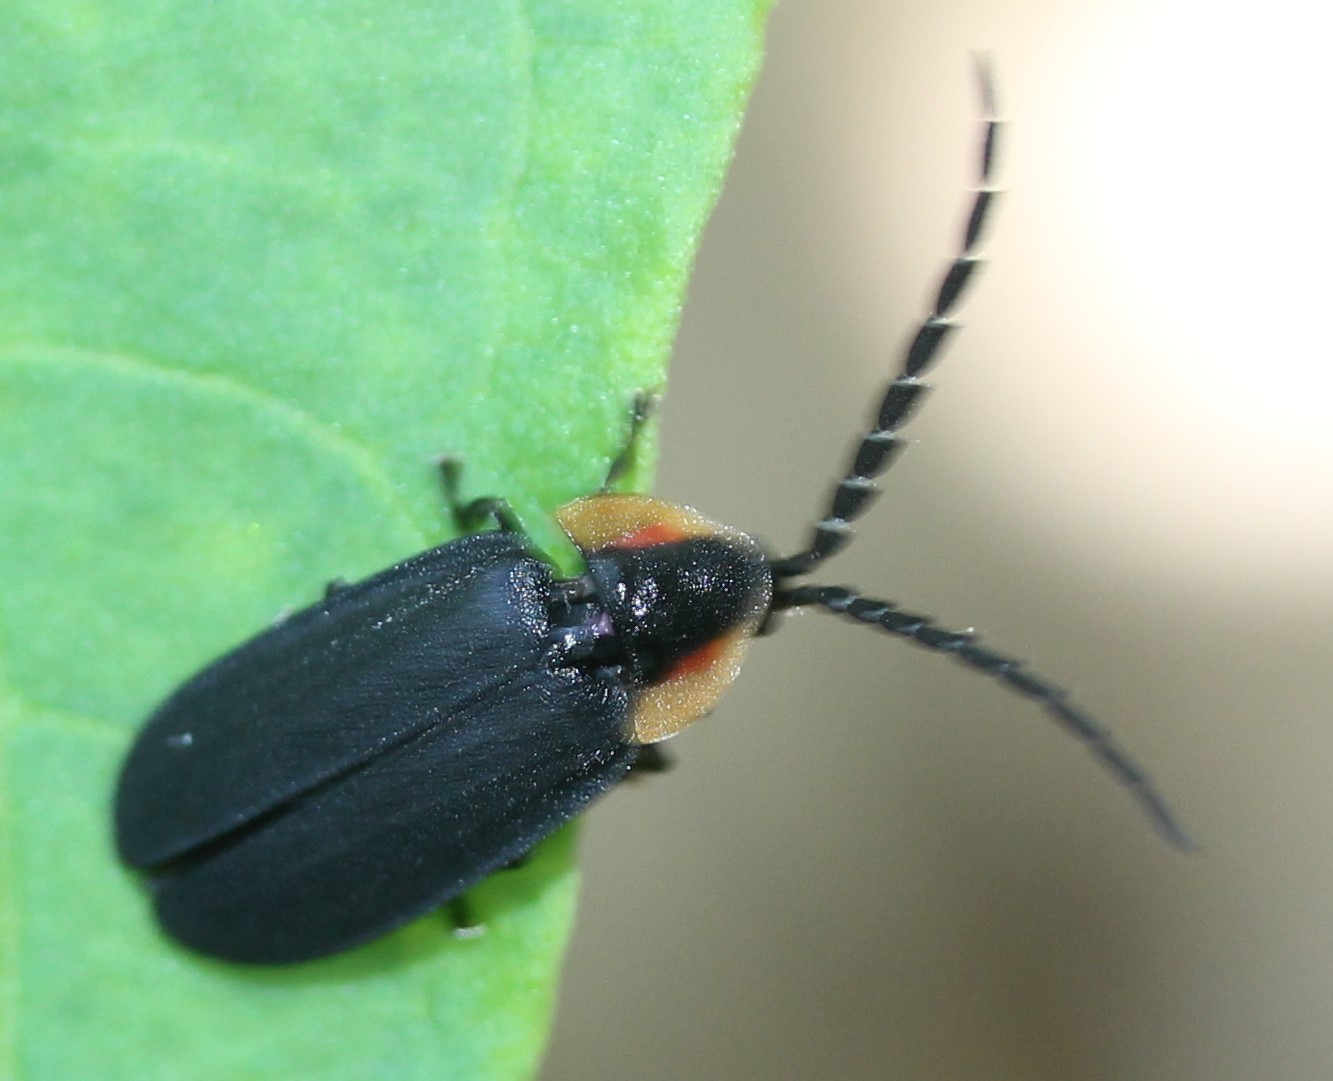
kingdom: Animalia
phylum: Arthropoda
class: Insecta
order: Coleoptera
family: Lampyridae
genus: Lucidota
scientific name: Lucidota atra
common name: Black firefly
